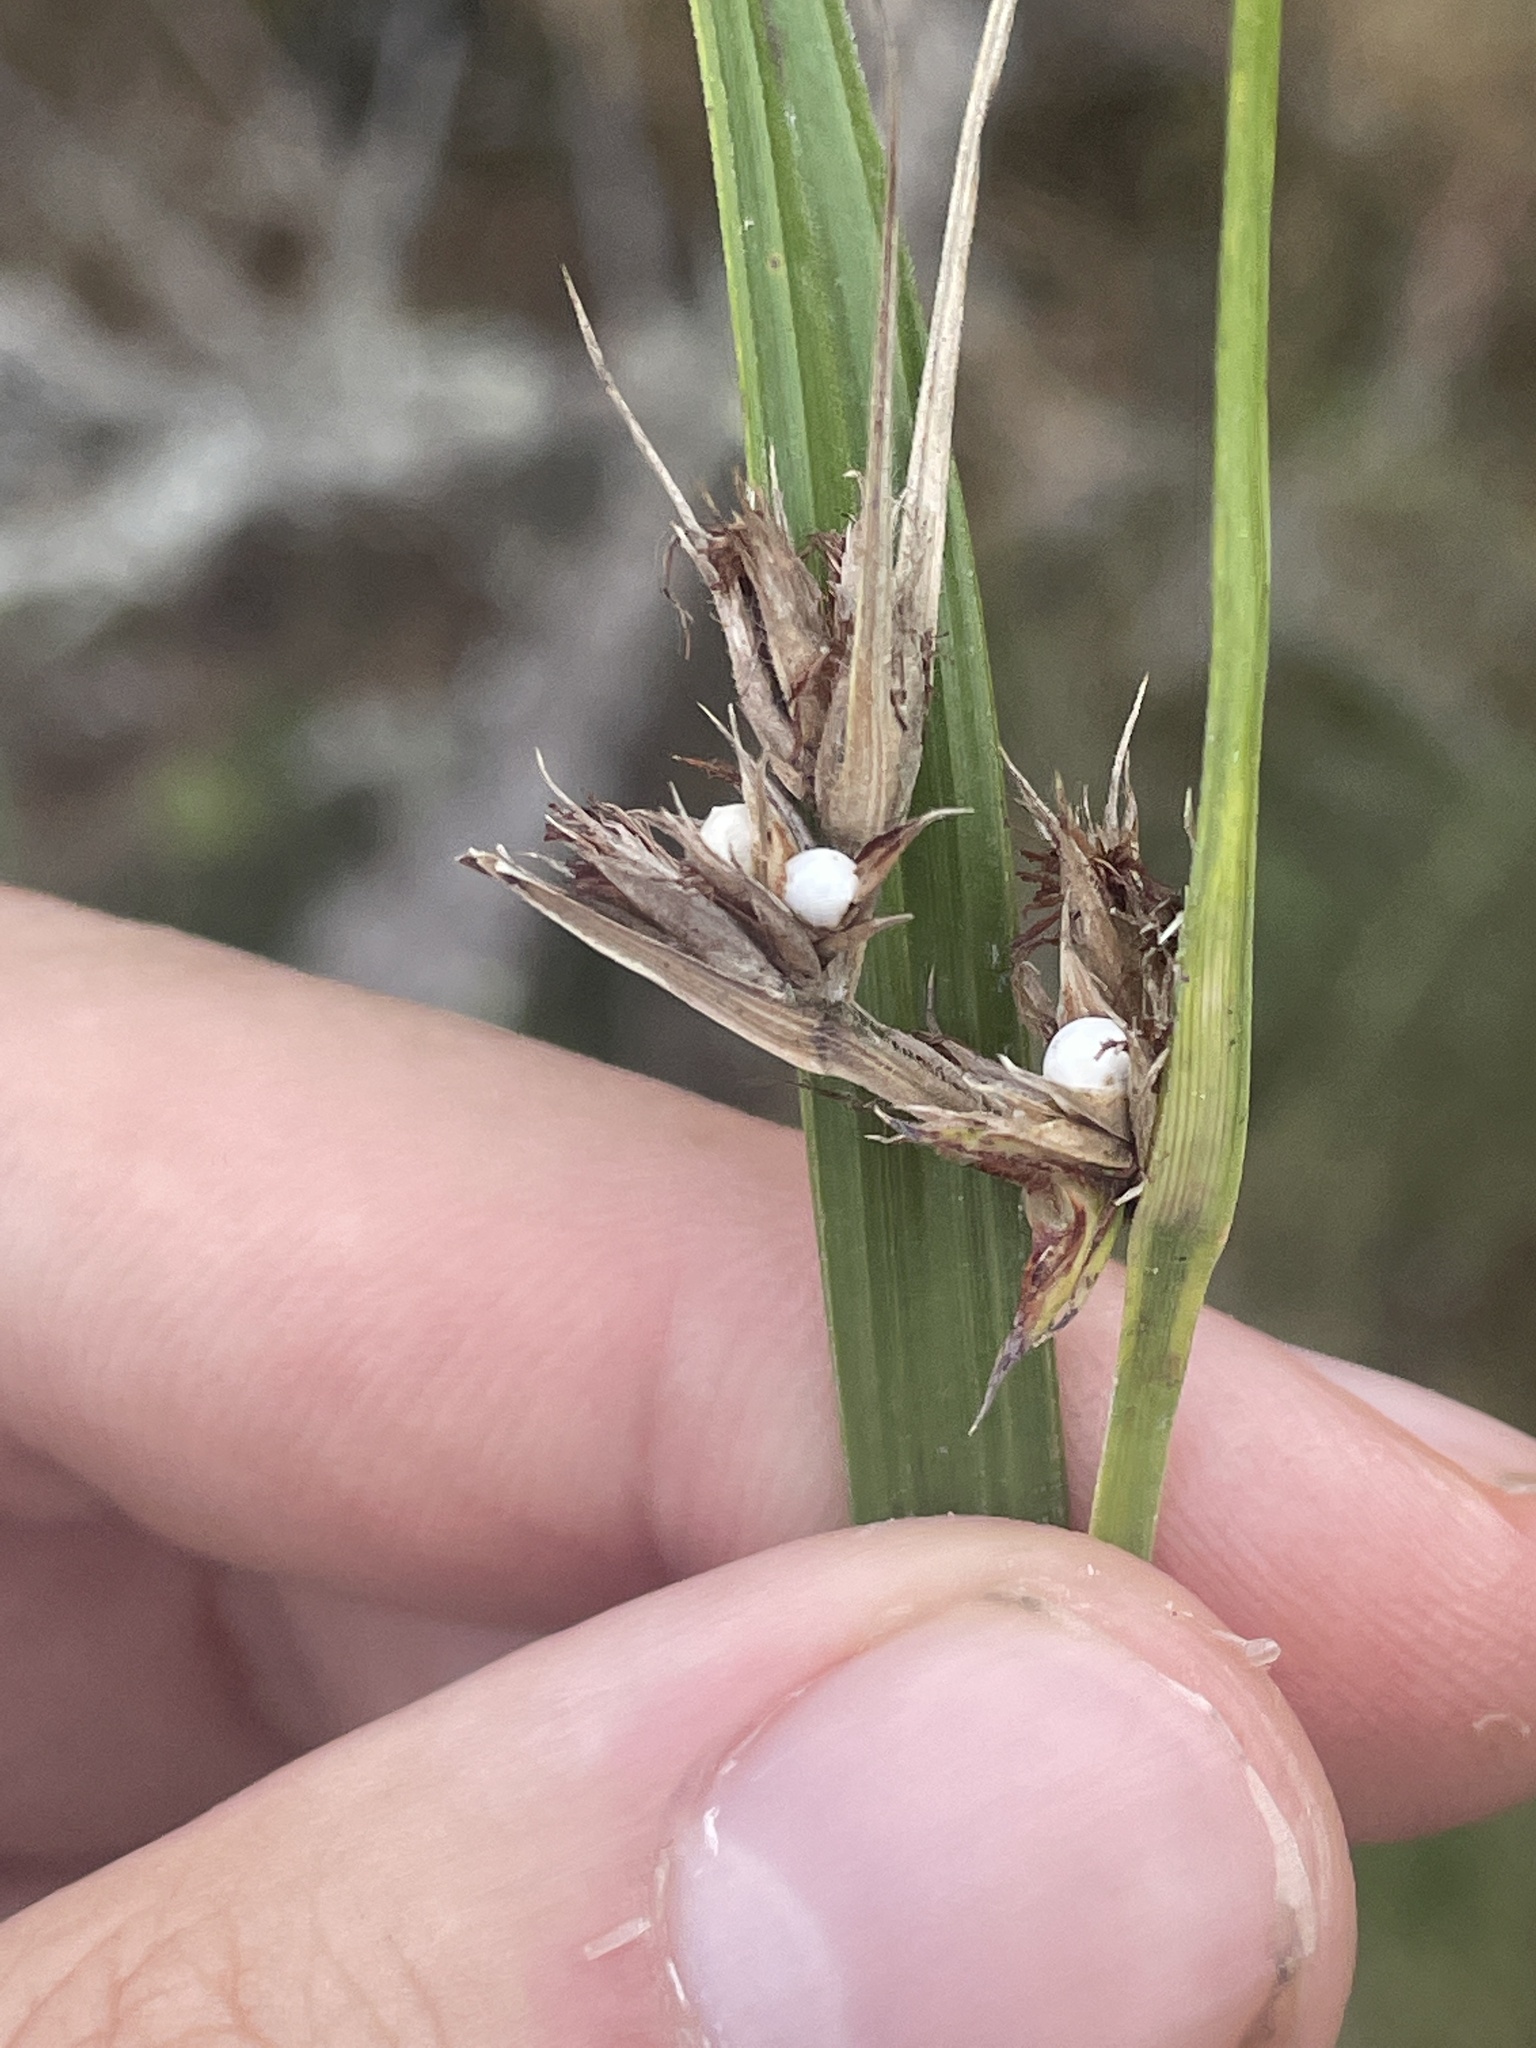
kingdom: Plantae
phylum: Tracheophyta
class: Liliopsida
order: Poales
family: Cyperaceae
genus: Scleria
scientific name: Scleria triglomerata
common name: Whip nutrush
